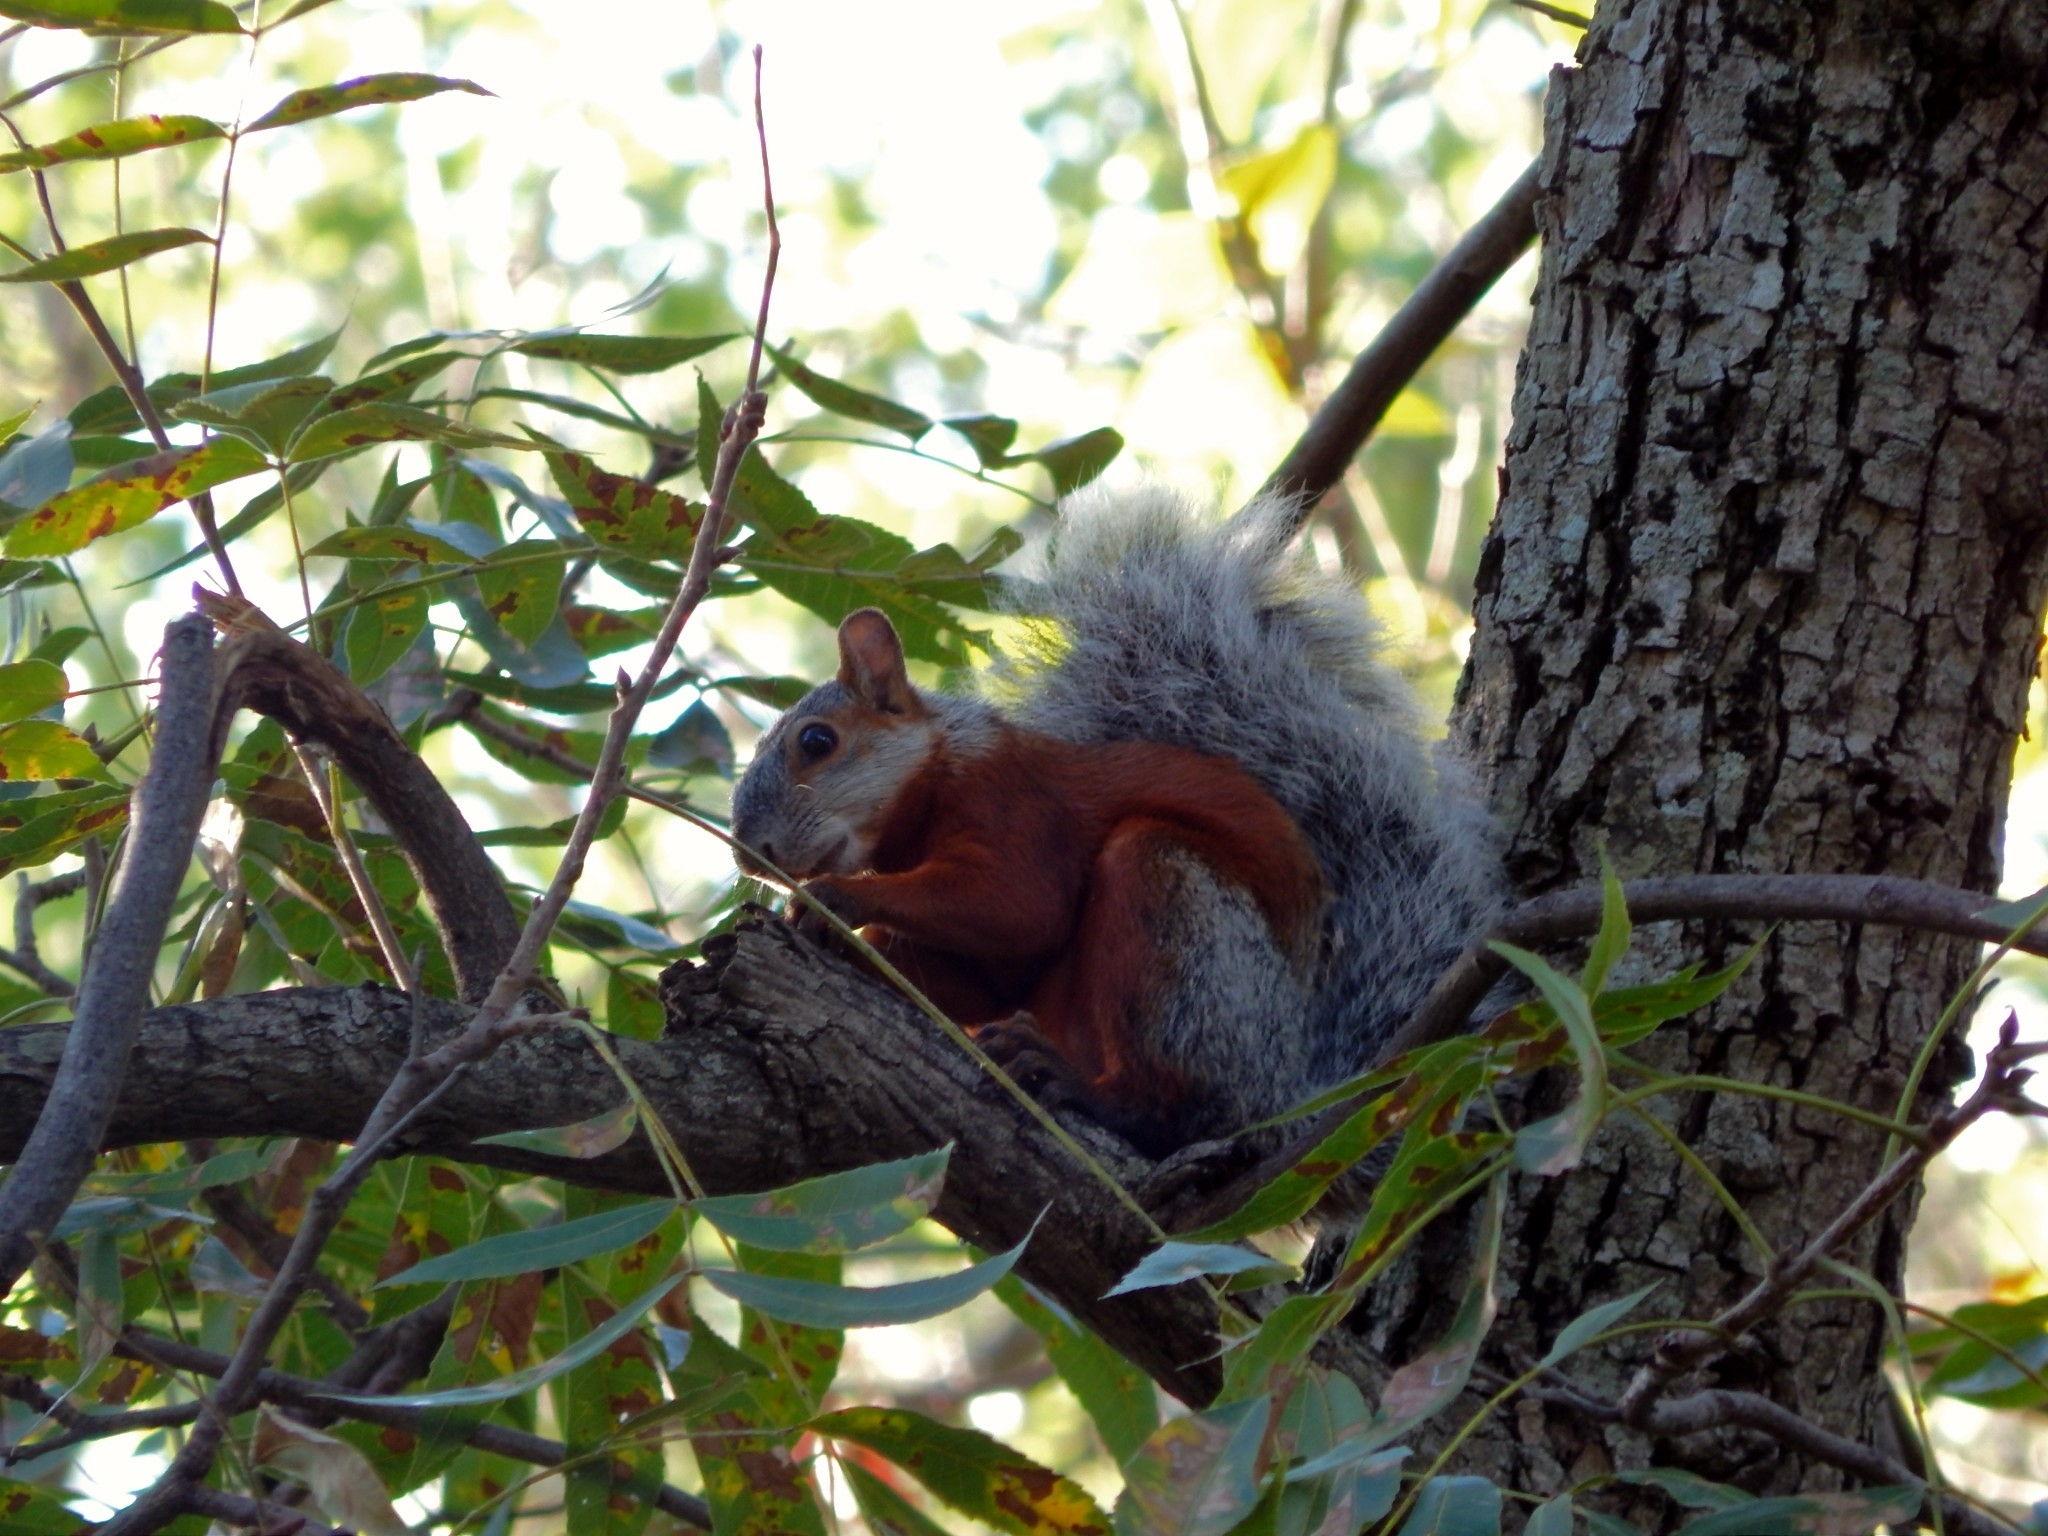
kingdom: Animalia
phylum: Chordata
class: Mammalia
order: Rodentia
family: Sciuridae
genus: Sciurus
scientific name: Sciurus aureogaster
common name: Red-bellied squirrel
